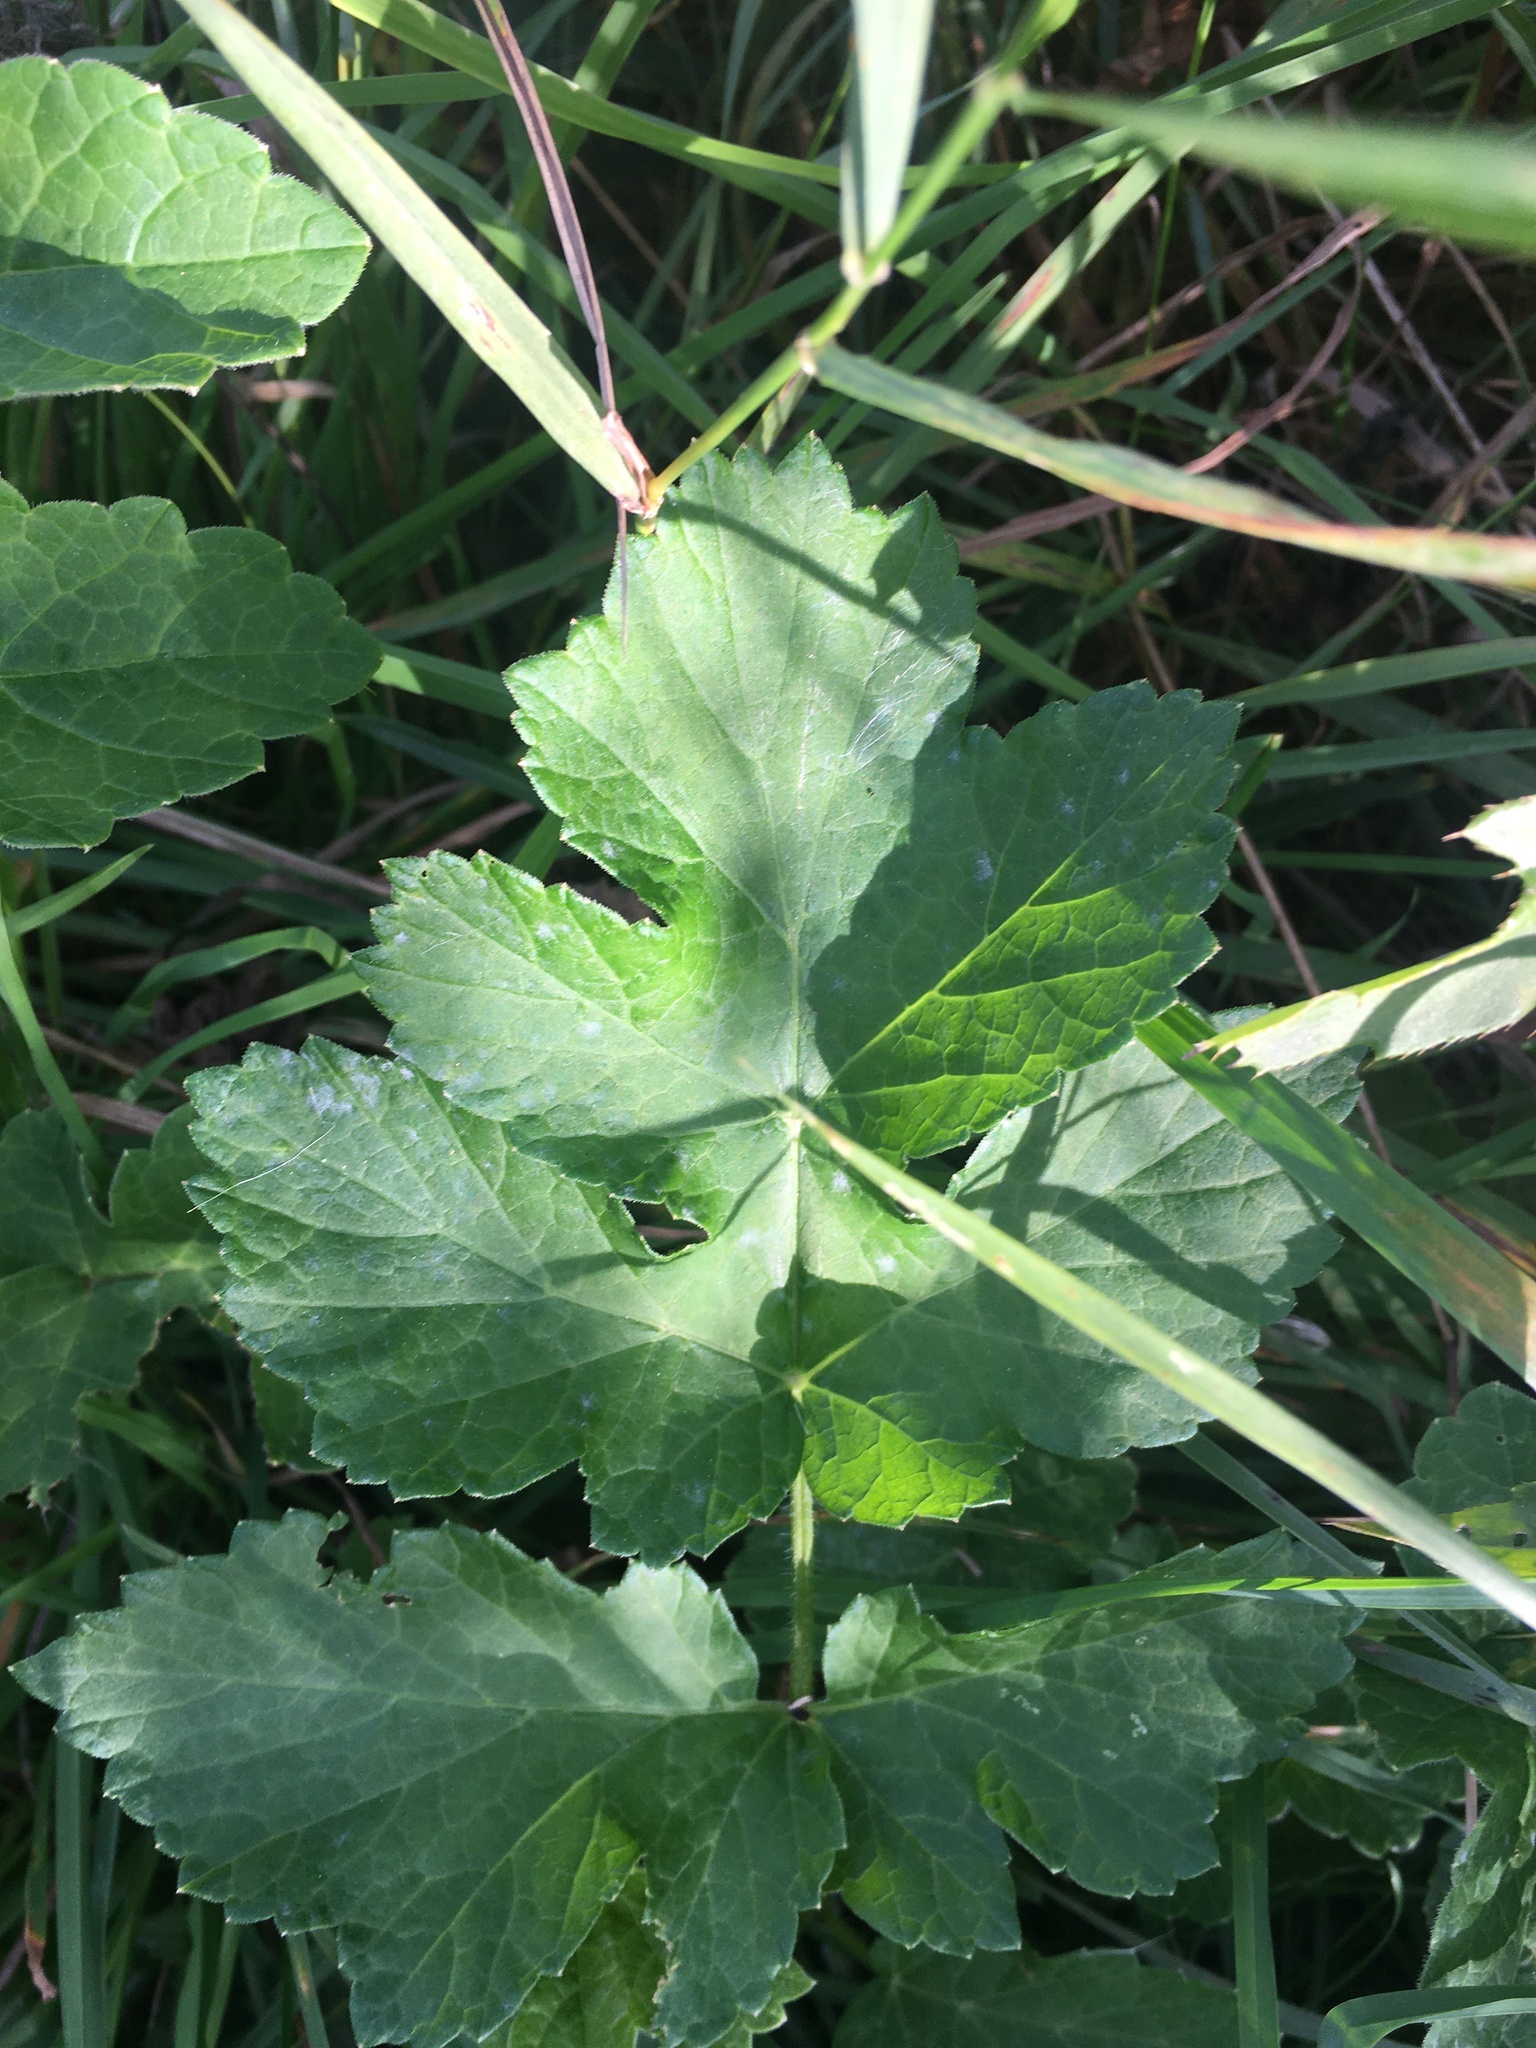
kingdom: Plantae
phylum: Tracheophyta
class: Magnoliopsida
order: Apiales
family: Apiaceae
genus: Heracleum
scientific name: Heracleum sphondylium
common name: Hogweed
